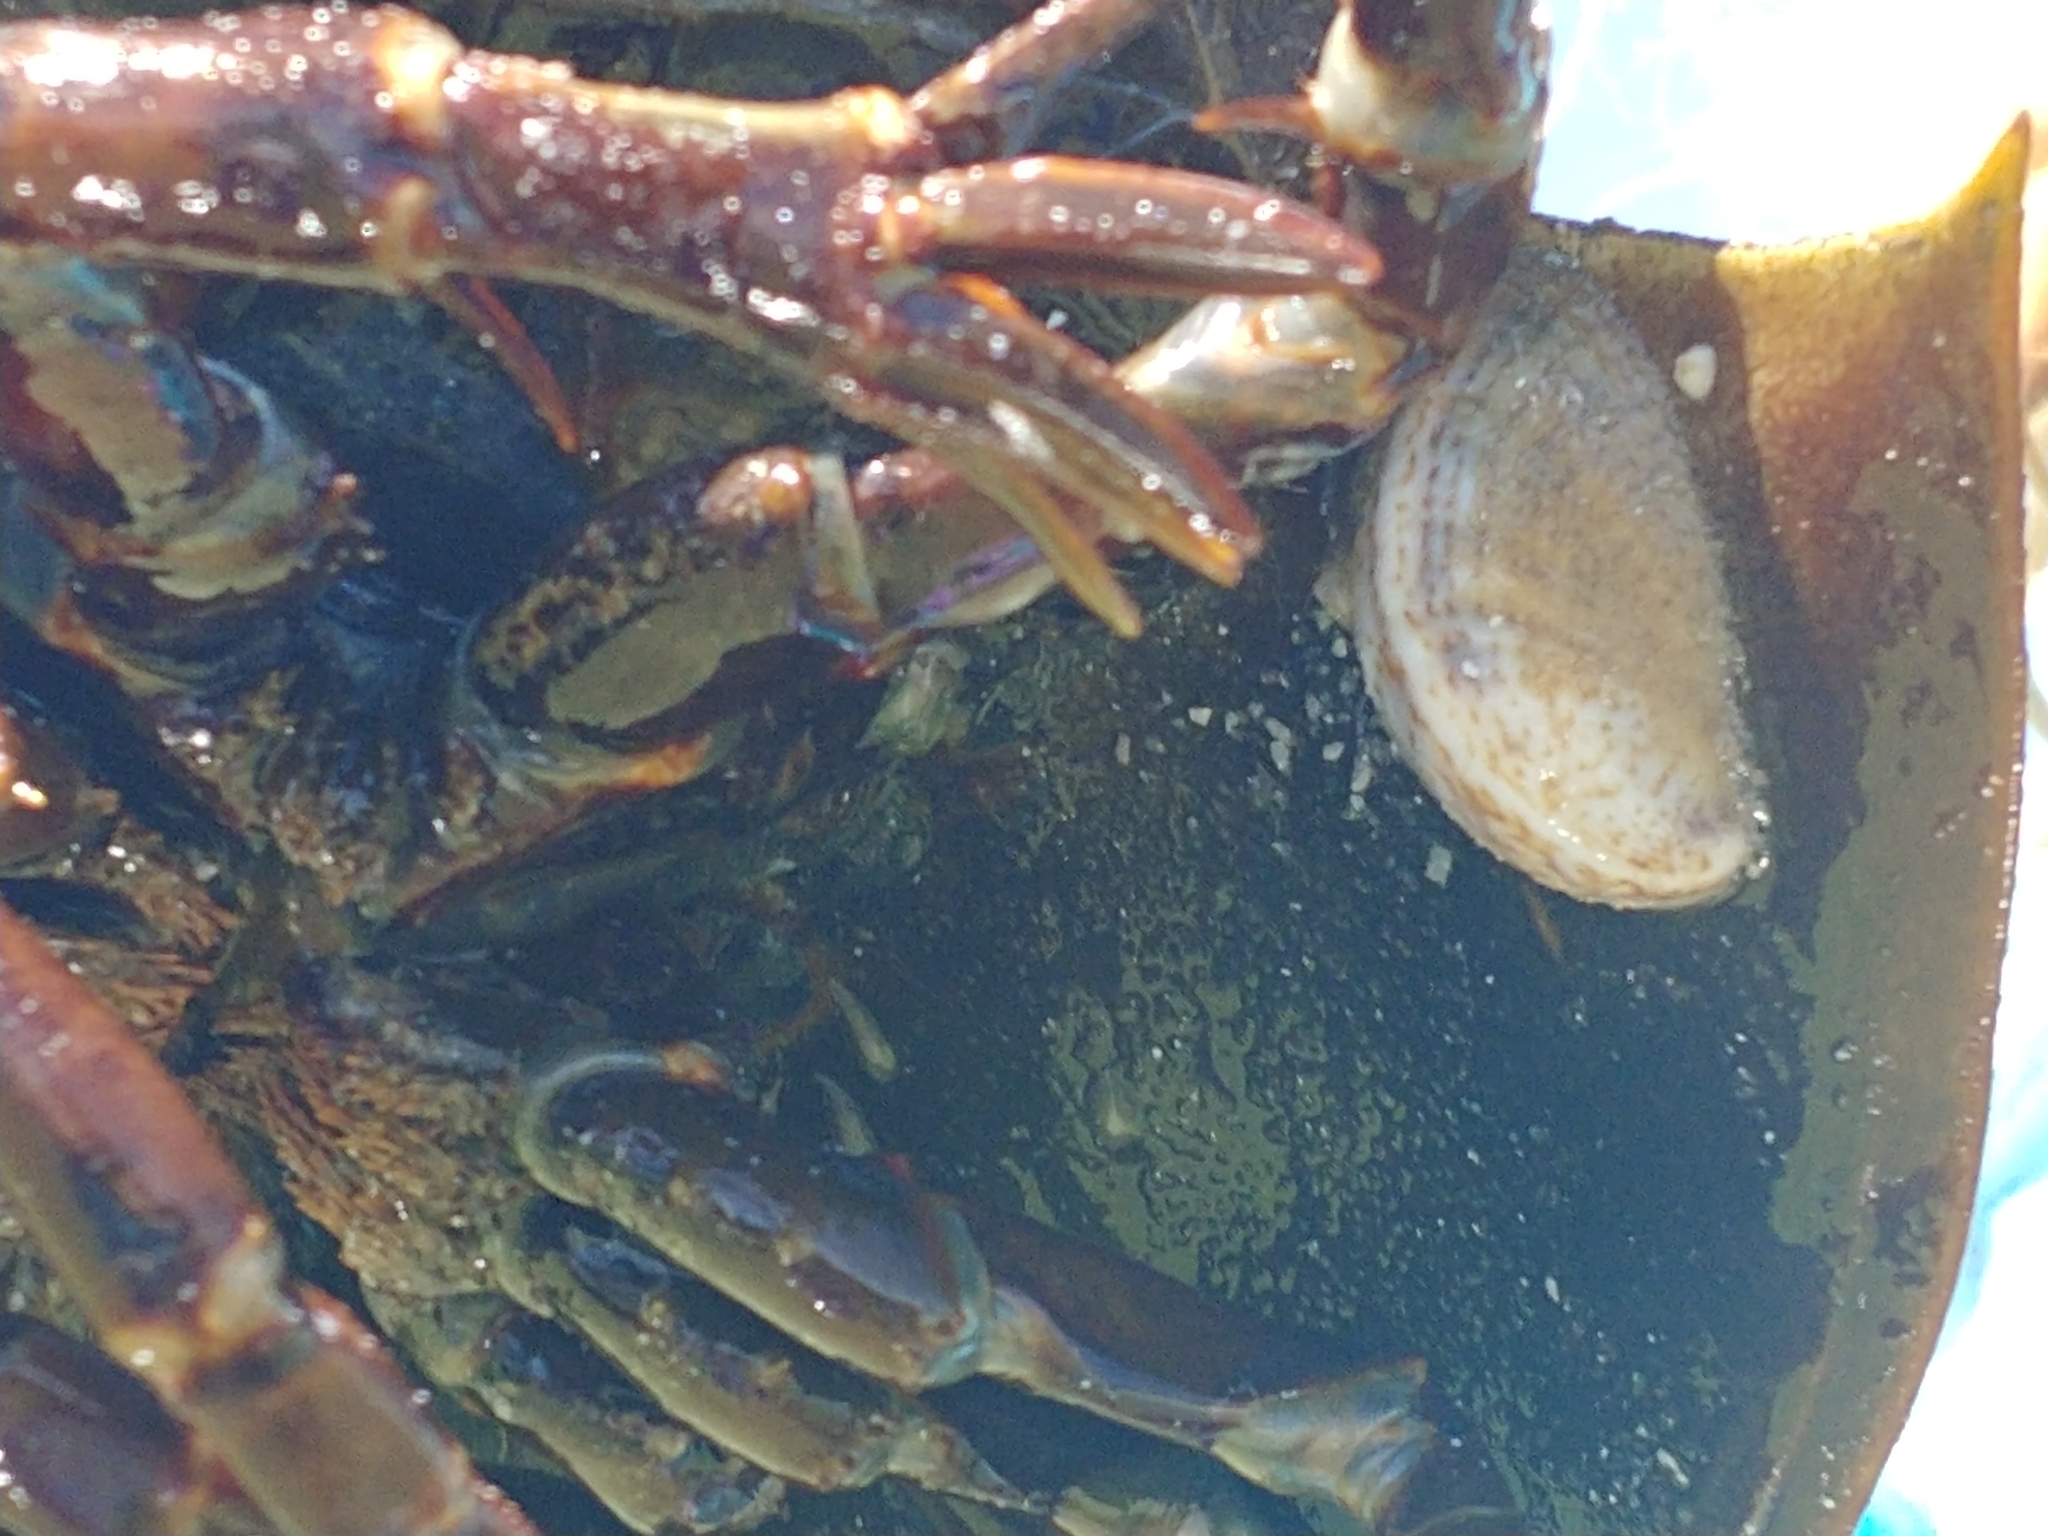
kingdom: Animalia
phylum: Mollusca
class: Gastropoda
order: Littorinimorpha
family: Calyptraeidae
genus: Crepidula
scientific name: Crepidula fornicata
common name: Slipper limpet
